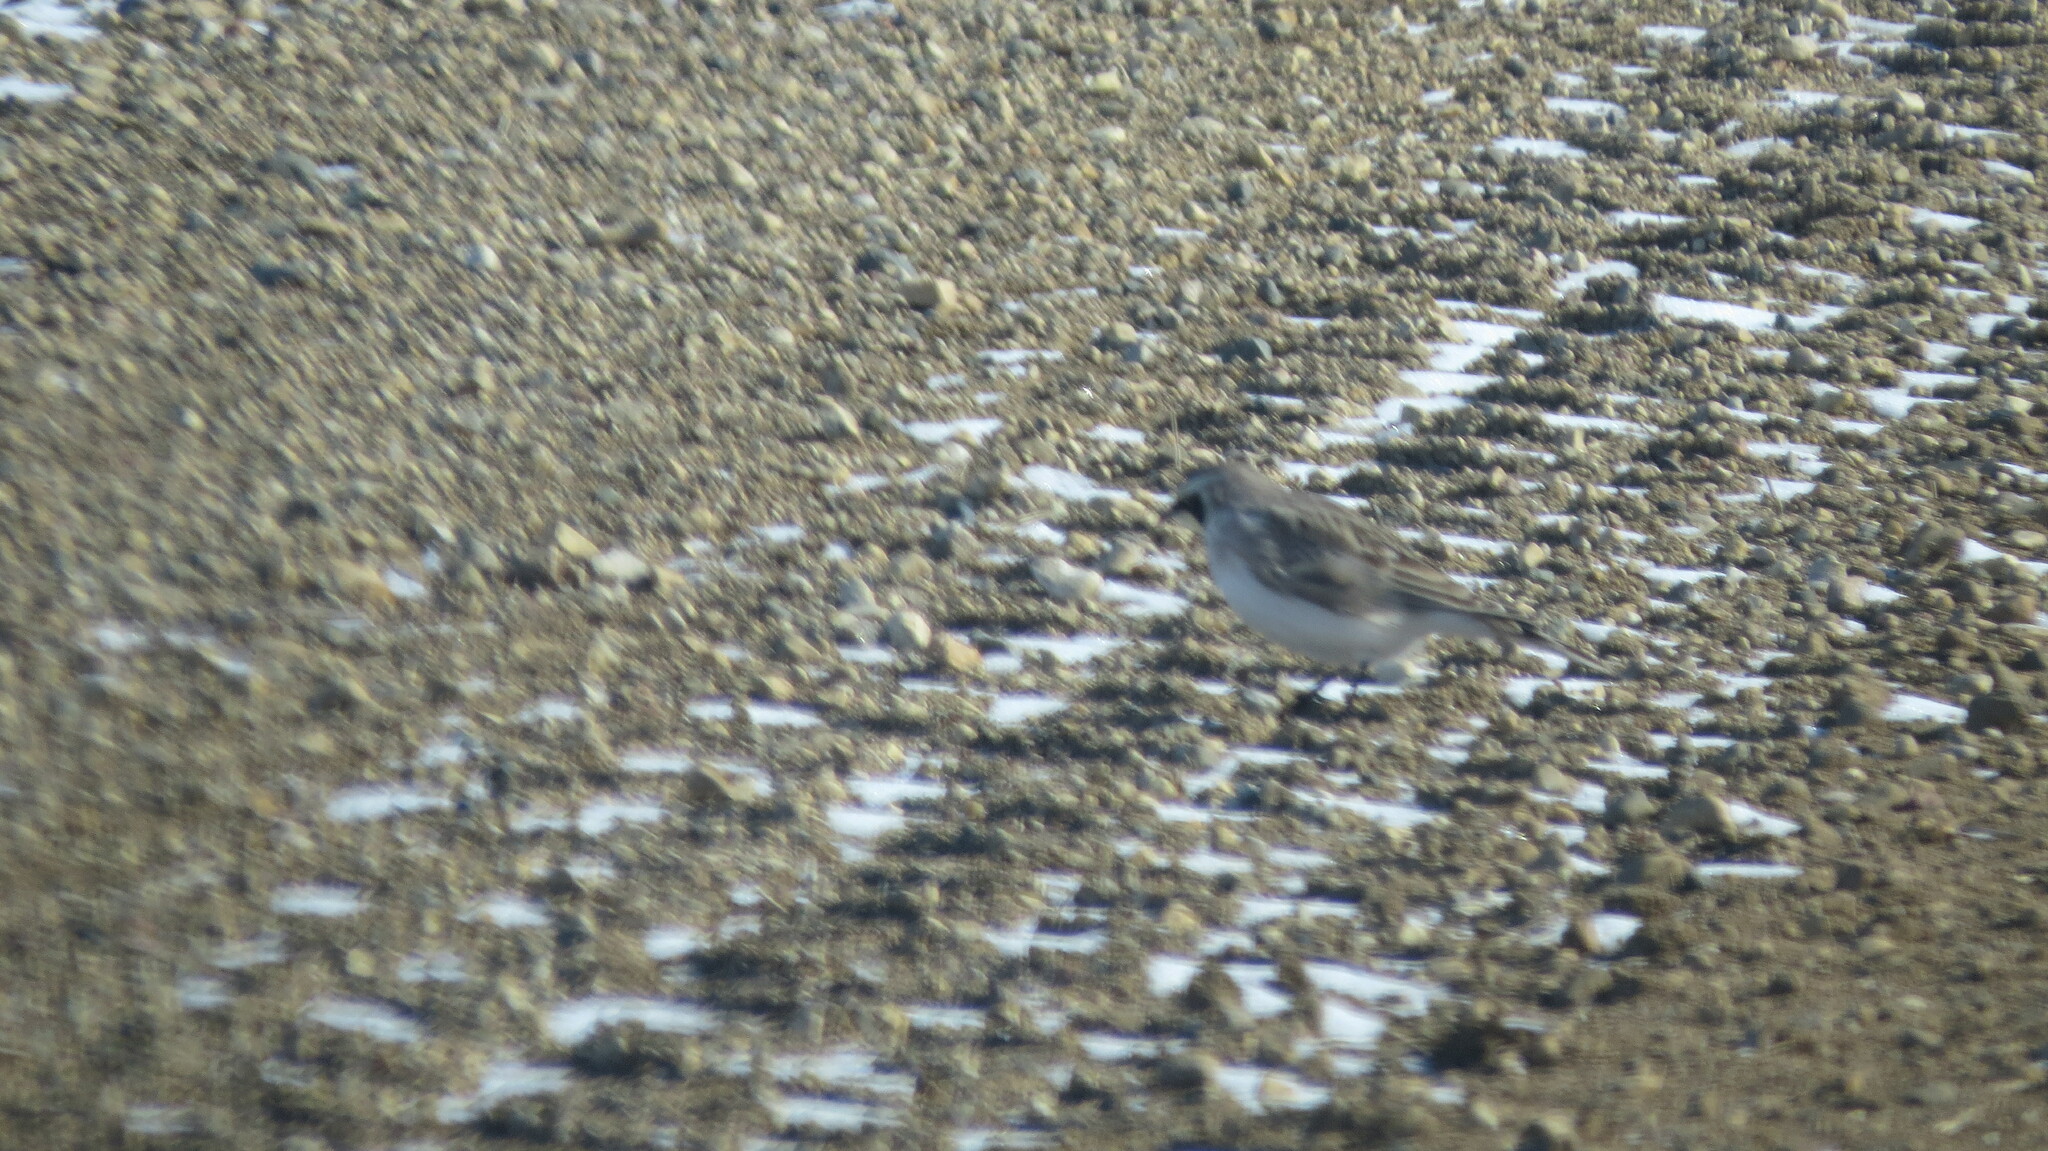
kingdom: Animalia
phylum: Chordata
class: Aves
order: Passeriformes
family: Alaudidae
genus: Eremophila
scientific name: Eremophila alpestris
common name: Horned lark
